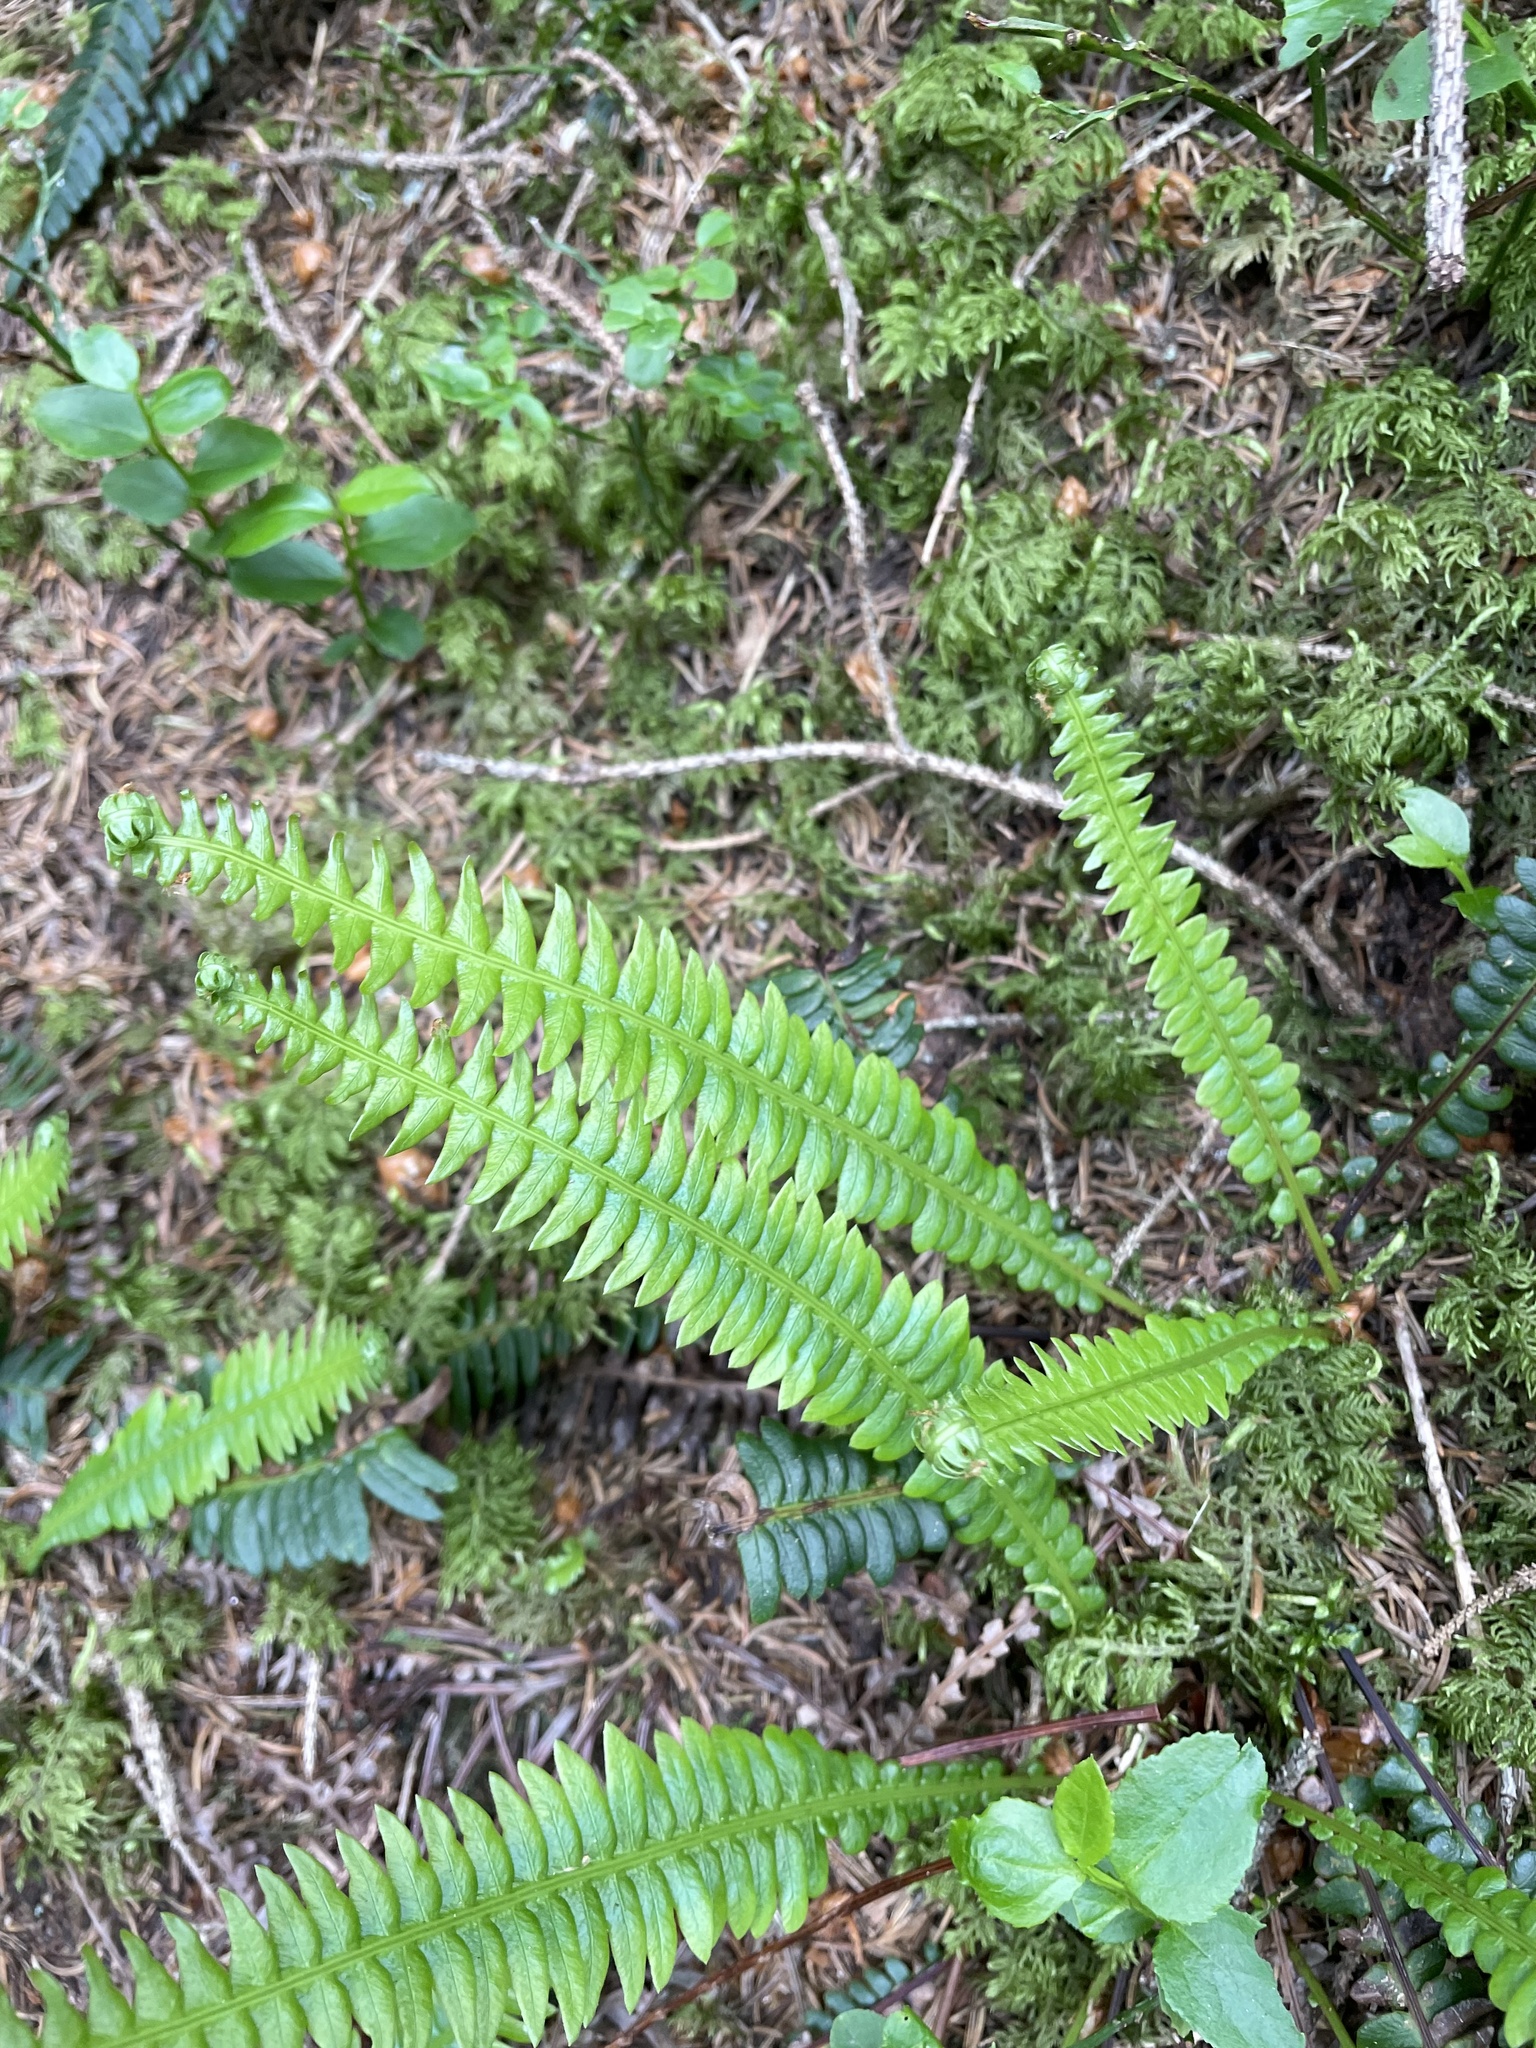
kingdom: Plantae
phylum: Tracheophyta
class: Polypodiopsida
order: Polypodiales
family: Blechnaceae
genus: Struthiopteris
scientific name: Struthiopteris spicant
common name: Deer fern
